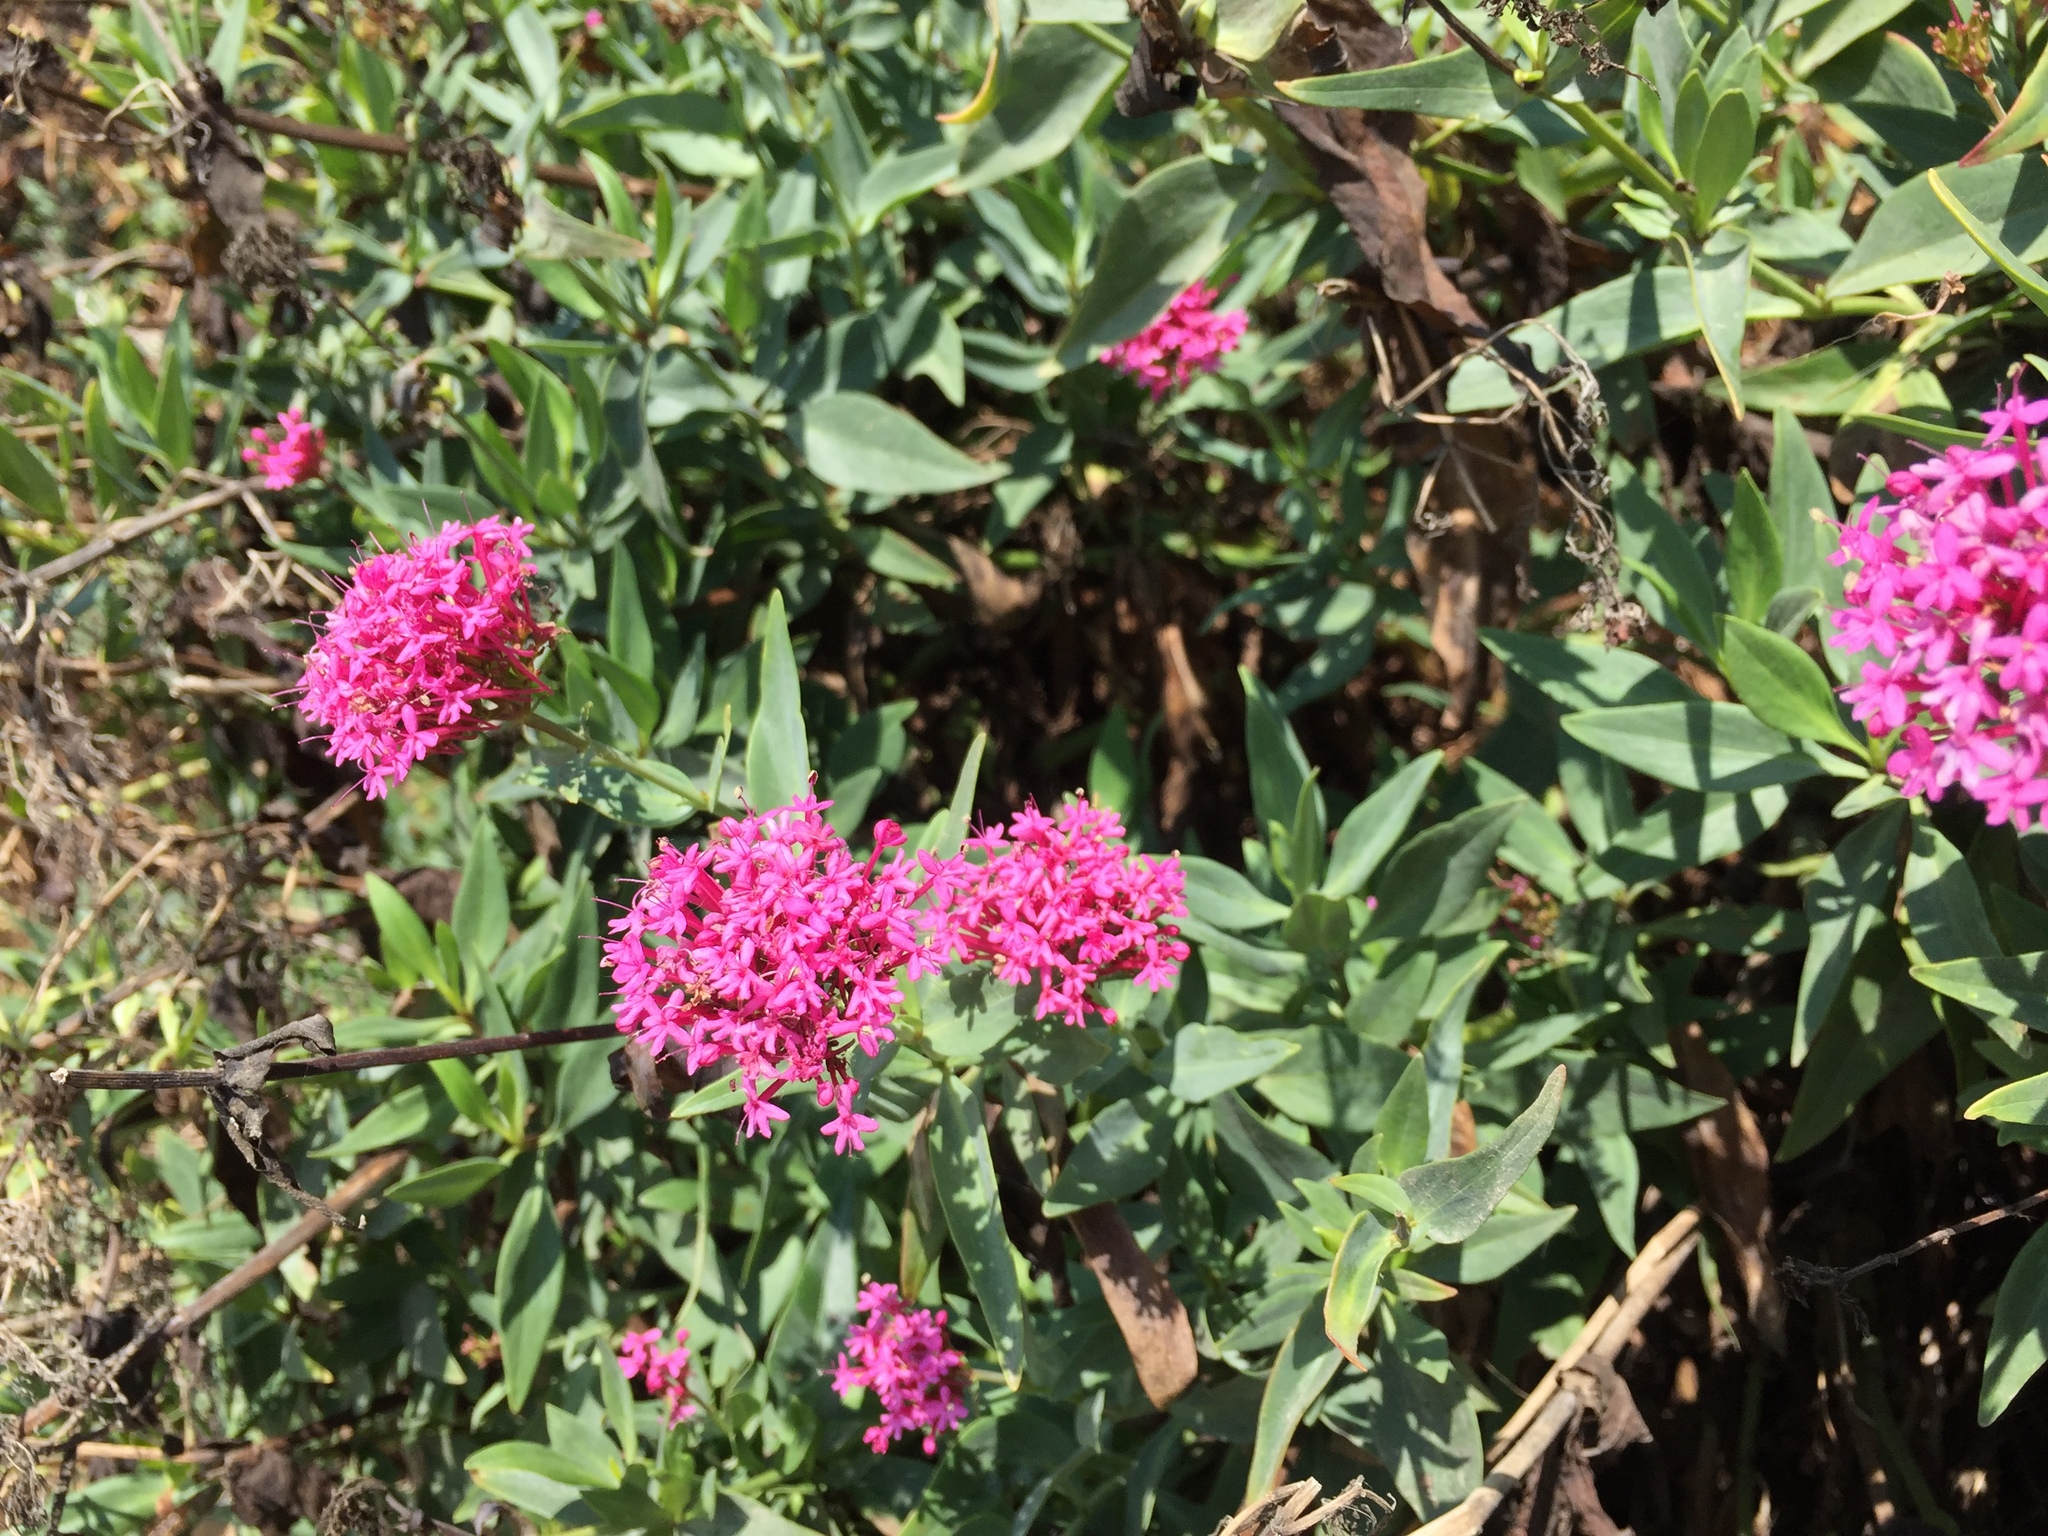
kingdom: Plantae
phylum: Tracheophyta
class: Magnoliopsida
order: Dipsacales
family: Caprifoliaceae
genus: Centranthus
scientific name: Centranthus ruber
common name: Red valerian
